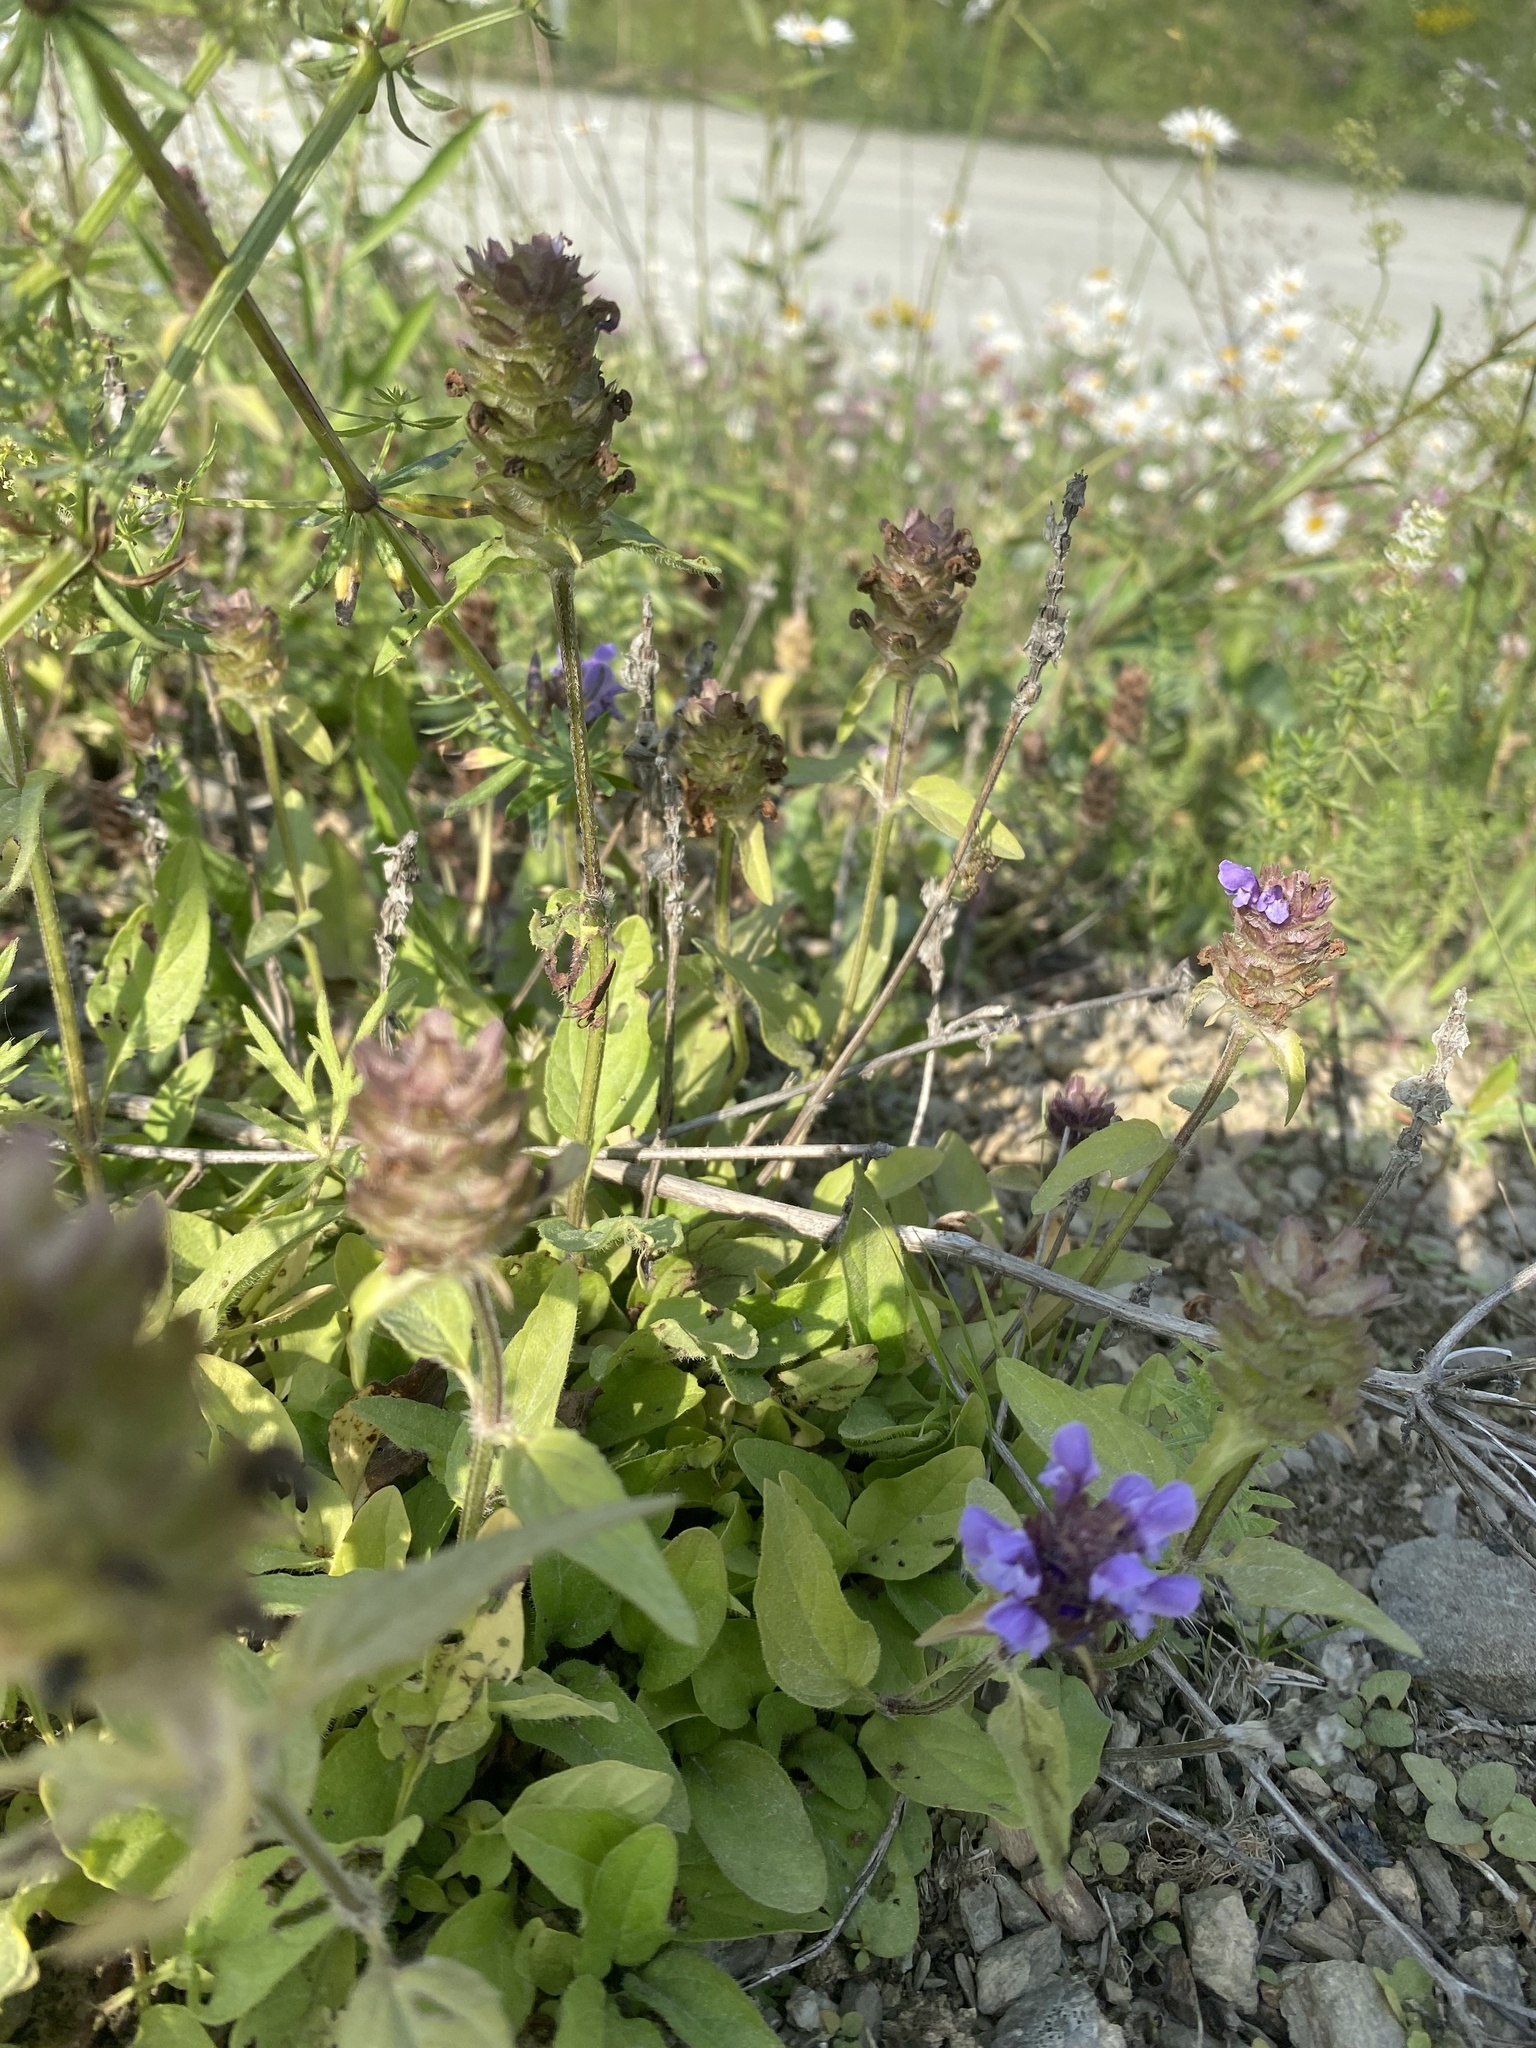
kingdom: Plantae
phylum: Tracheophyta
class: Magnoliopsida
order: Lamiales
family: Lamiaceae
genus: Prunella
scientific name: Prunella vulgaris
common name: Heal-all
